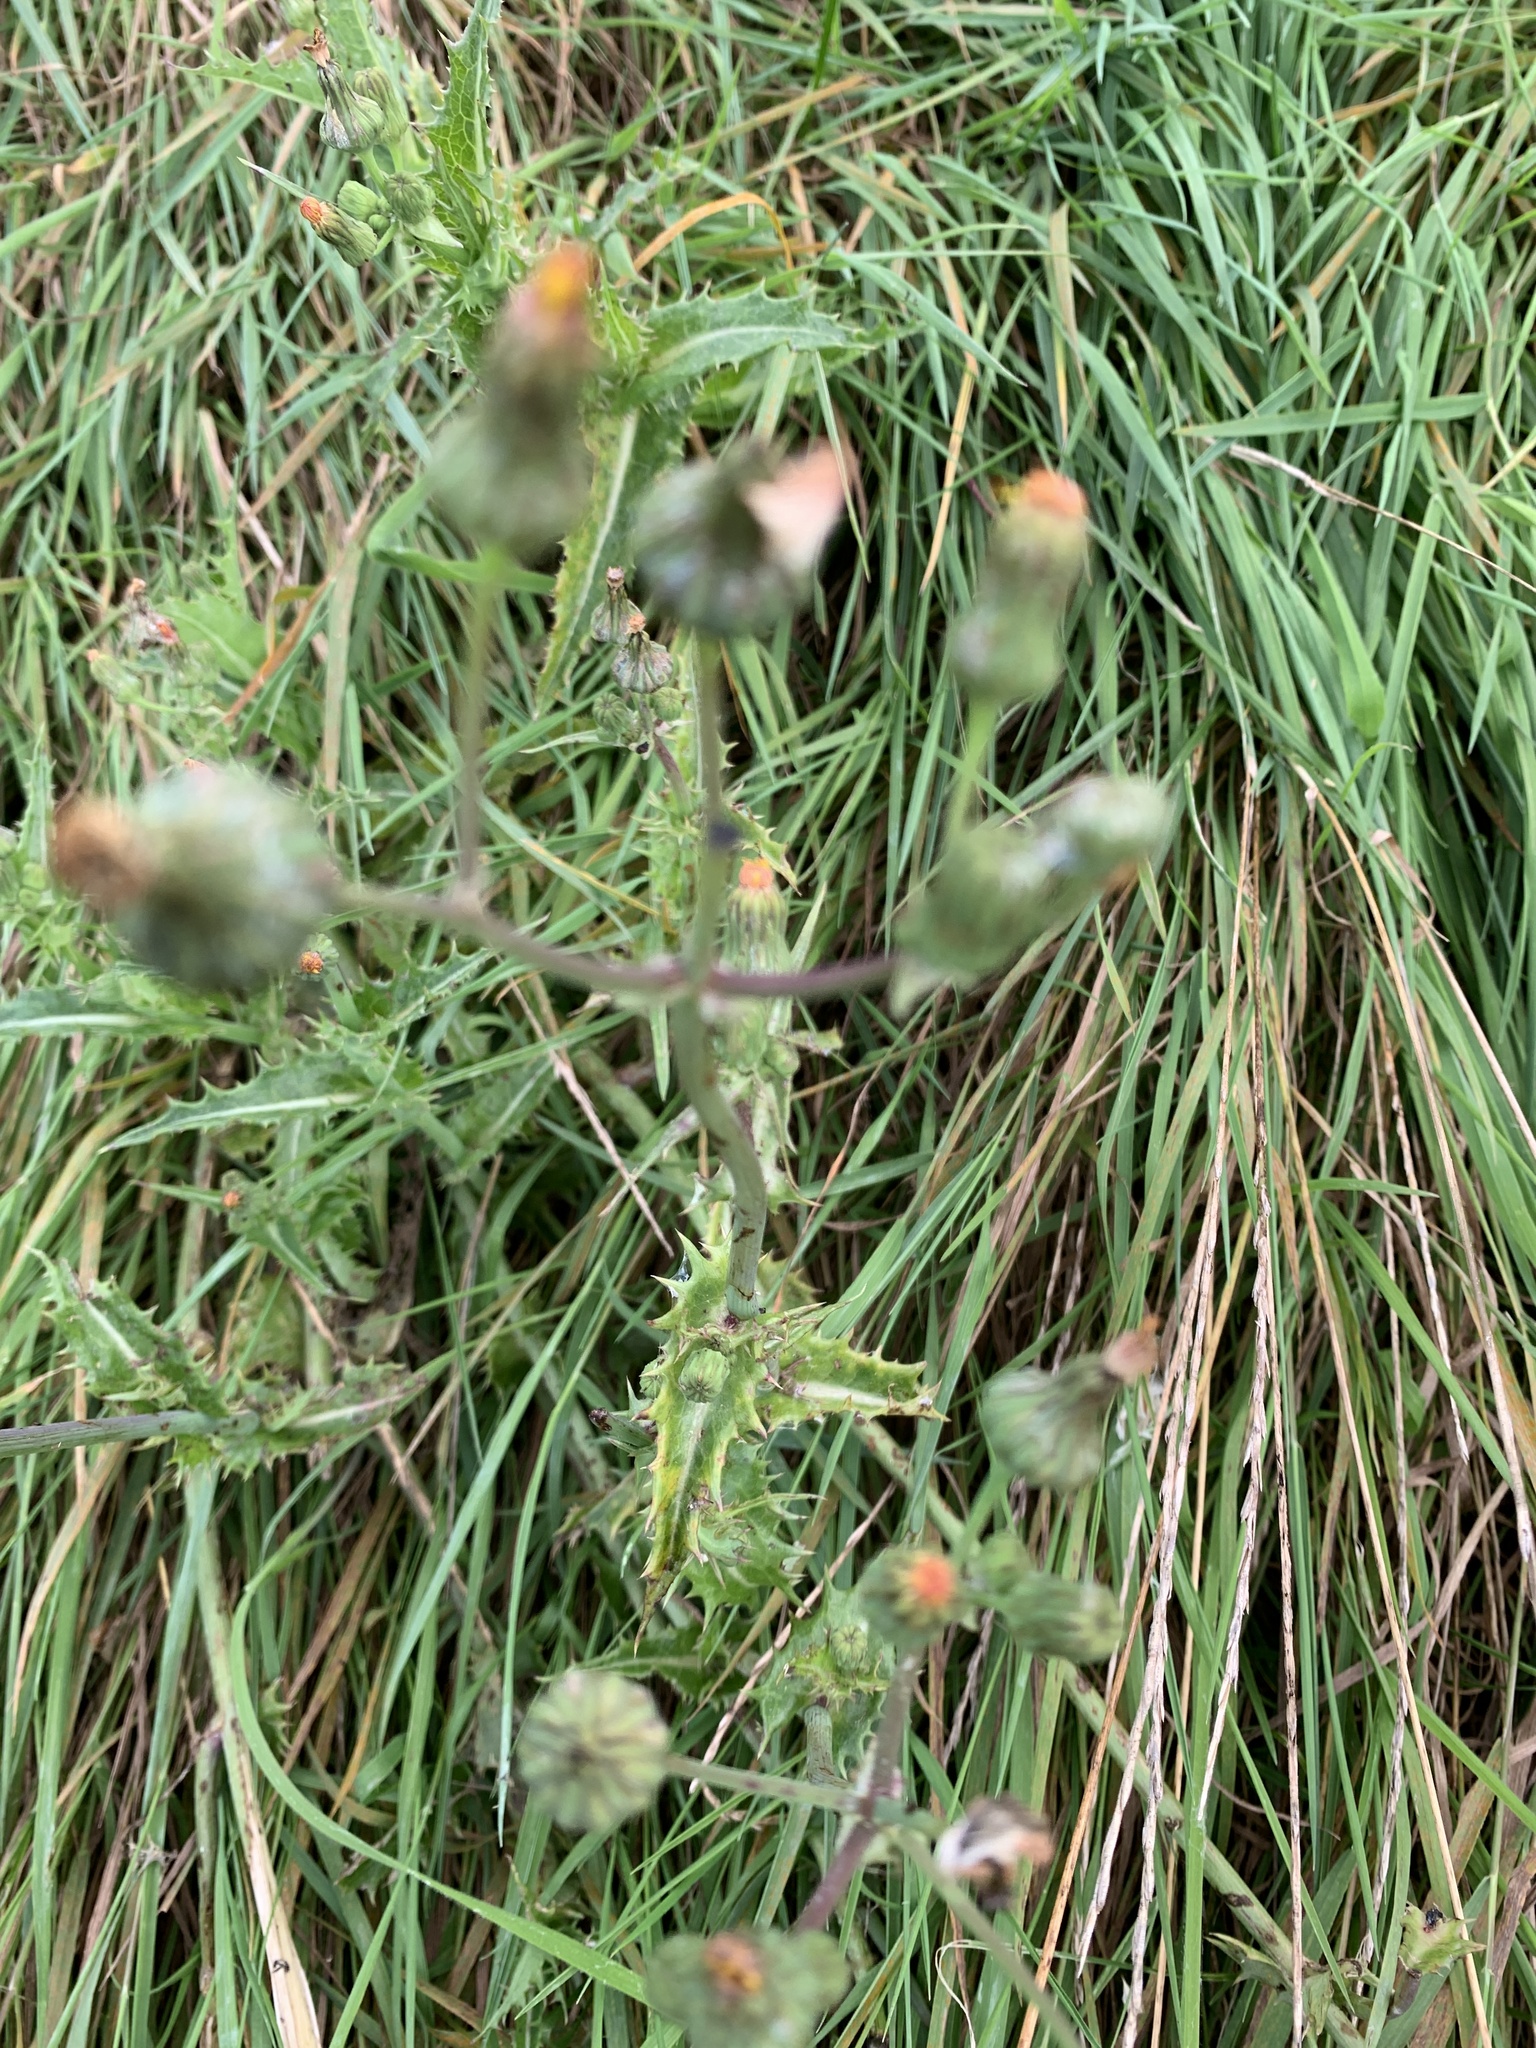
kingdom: Plantae
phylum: Tracheophyta
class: Magnoliopsida
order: Asterales
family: Asteraceae
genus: Sonchus
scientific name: Sonchus asper
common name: Prickly sow-thistle
